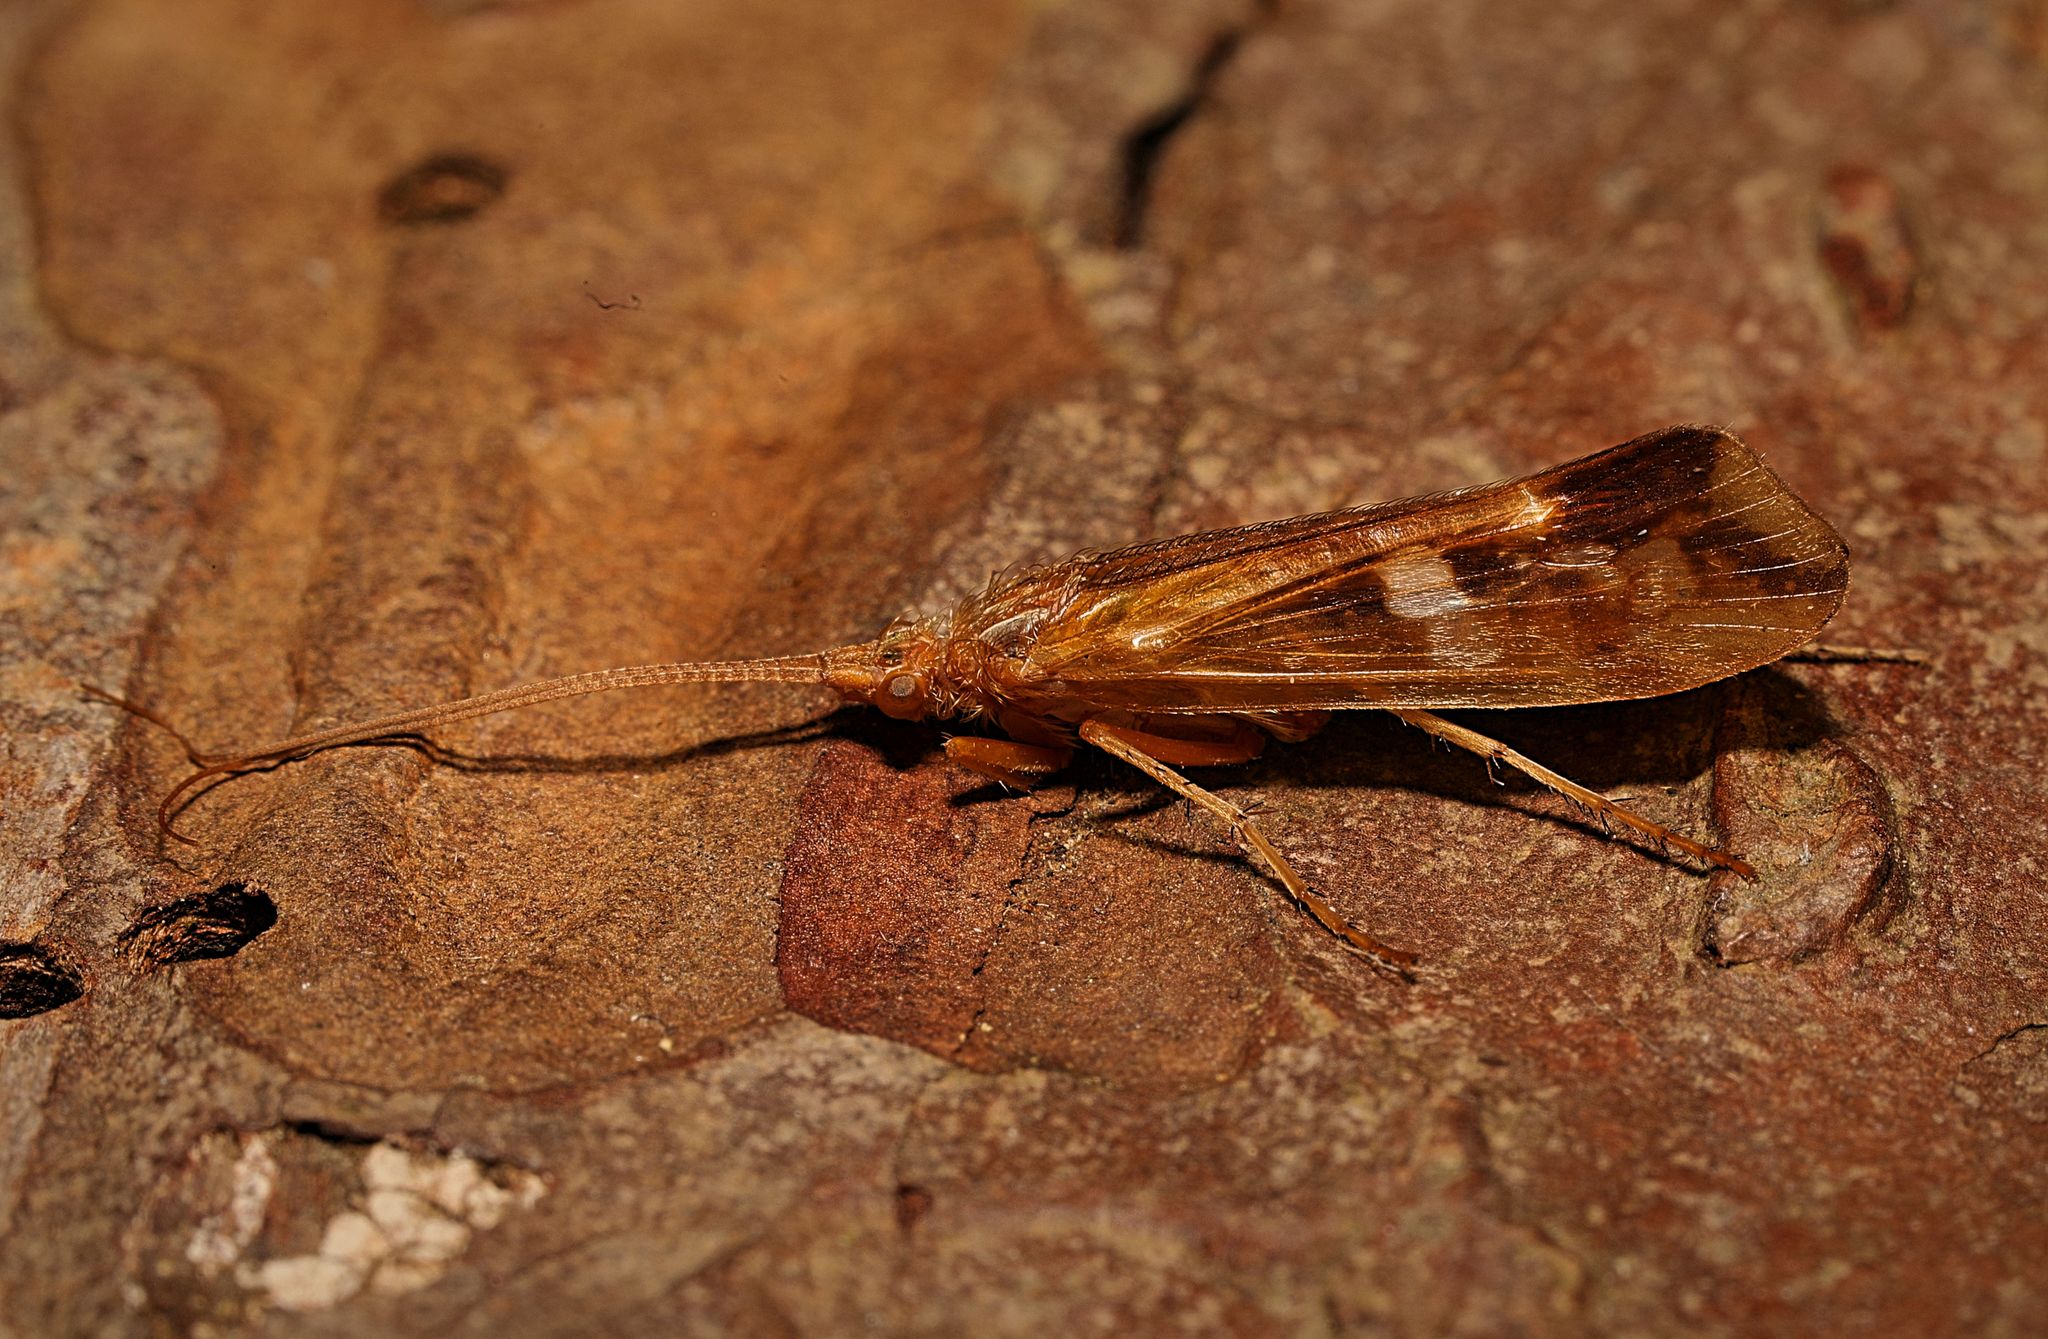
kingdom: Animalia
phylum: Arthropoda
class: Insecta
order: Trichoptera
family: Limnephilidae
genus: Limnephilus
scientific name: Limnephilus lunatus
